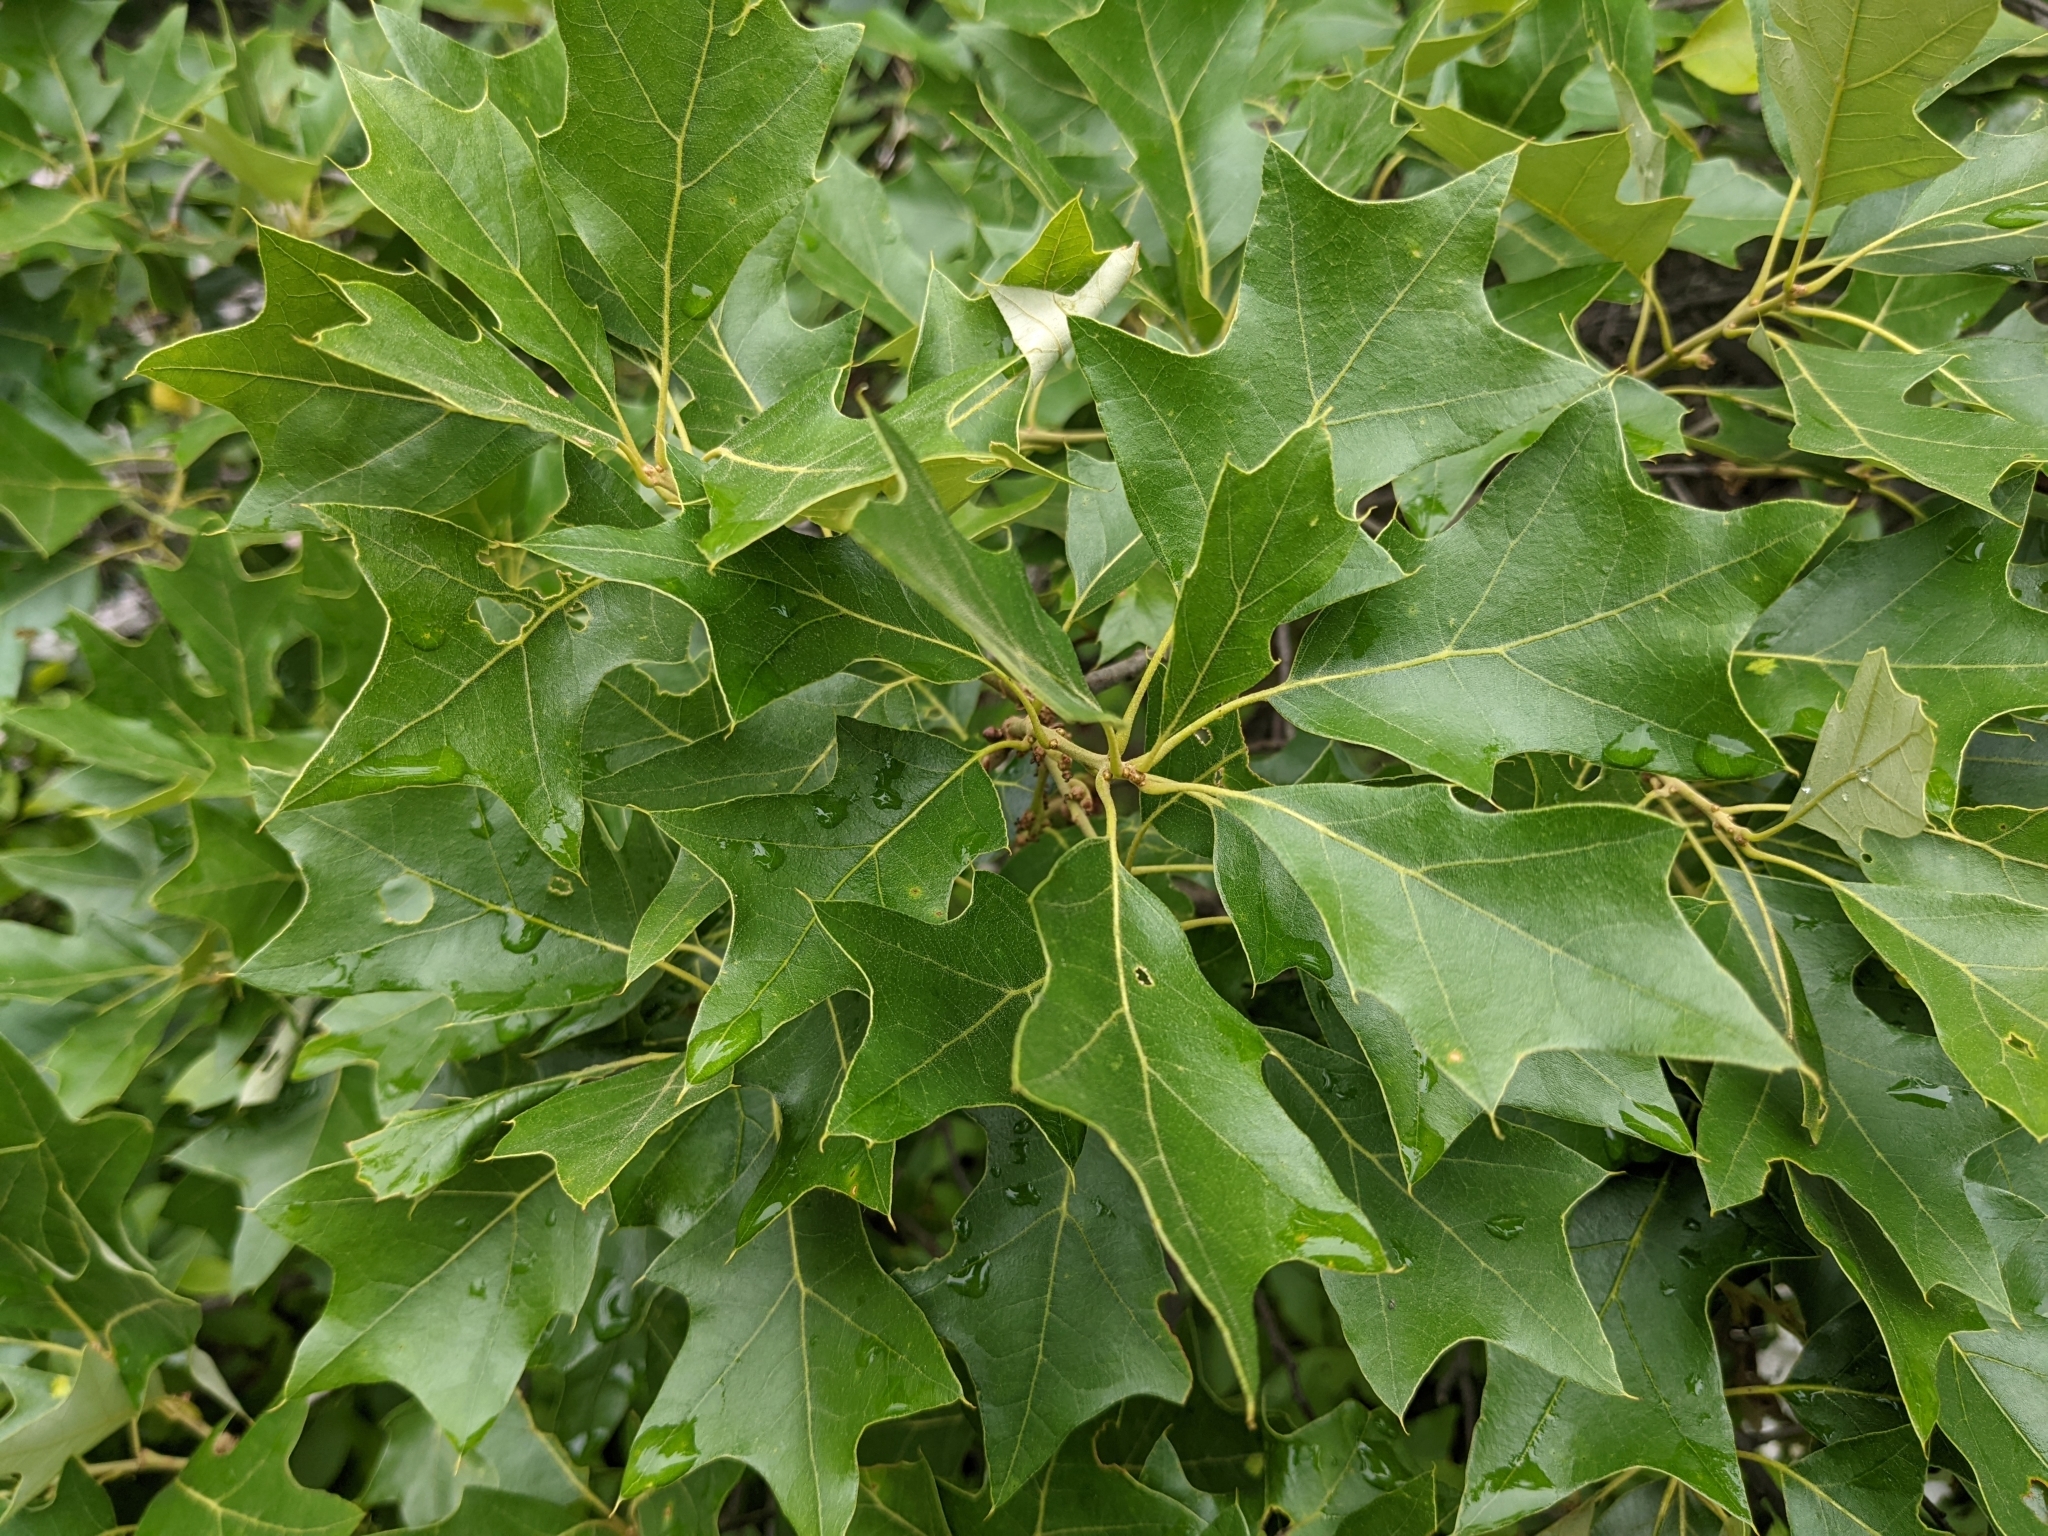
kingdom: Plantae
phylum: Tracheophyta
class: Magnoliopsida
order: Fagales
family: Fagaceae
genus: Quercus
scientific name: Quercus ilicifolia
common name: Bear oak
